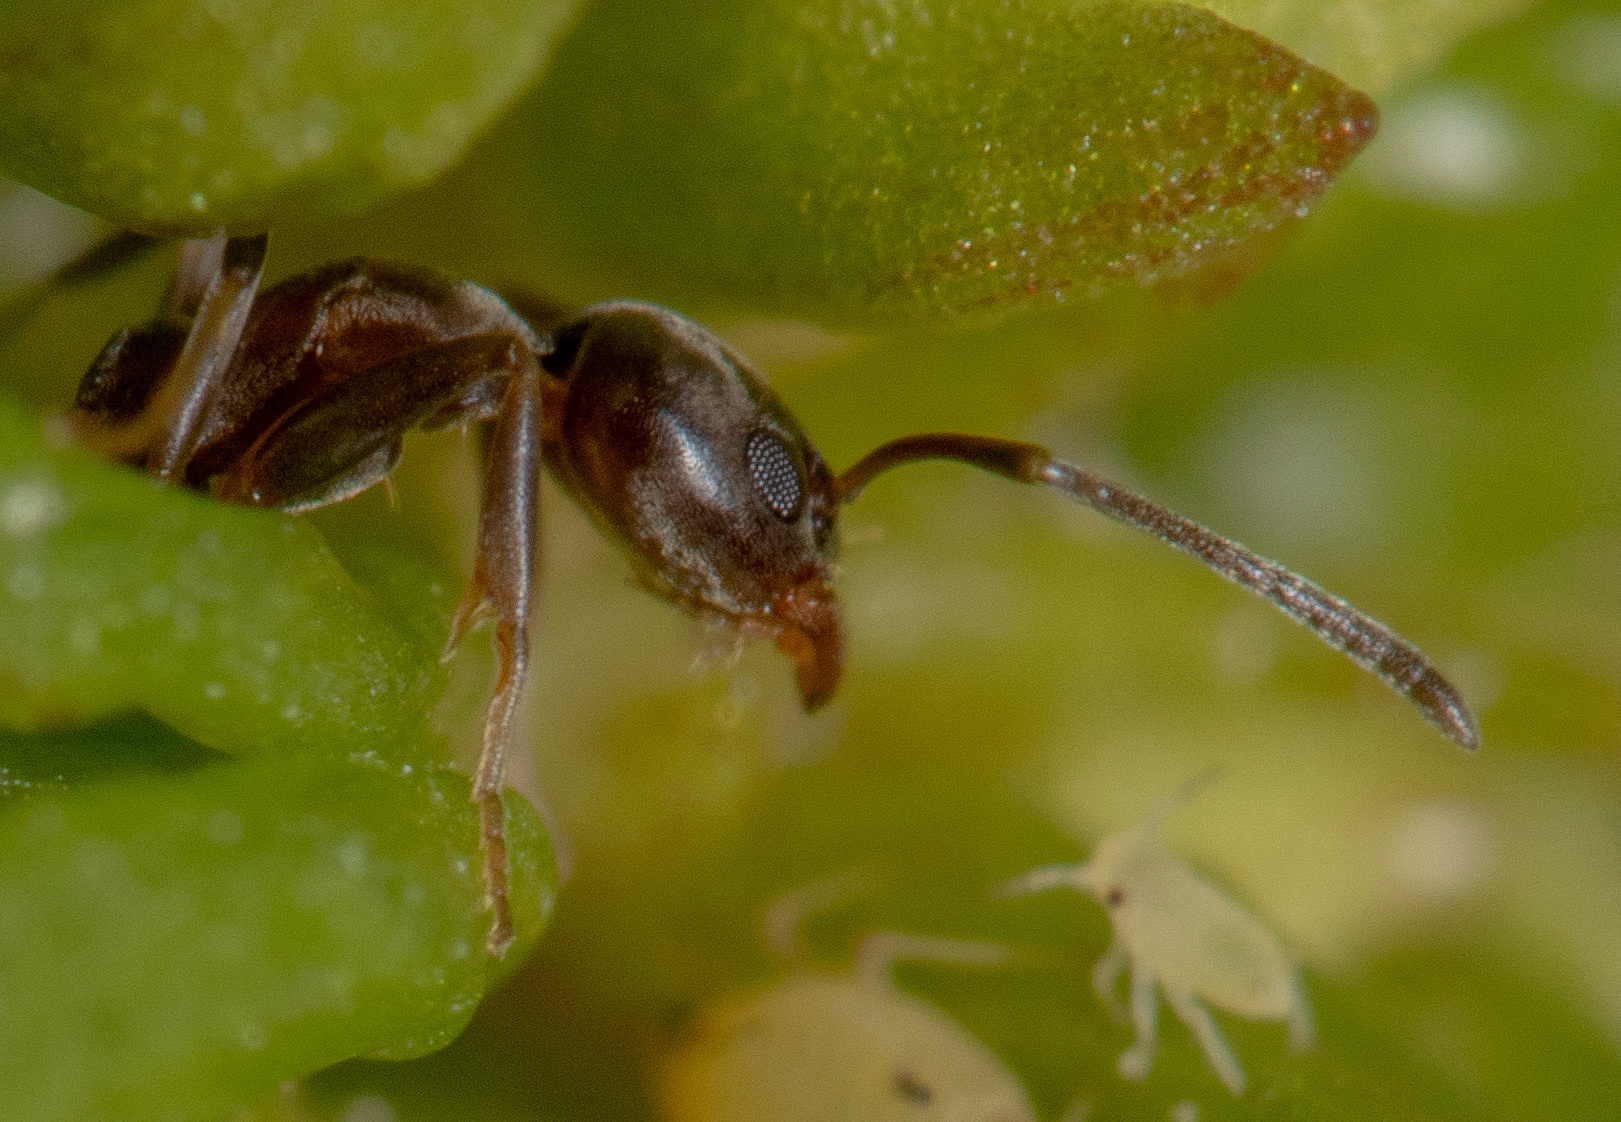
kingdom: Animalia
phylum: Arthropoda
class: Insecta
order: Hymenoptera
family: Formicidae
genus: Linepithema
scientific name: Linepithema humile
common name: Argentine ant
